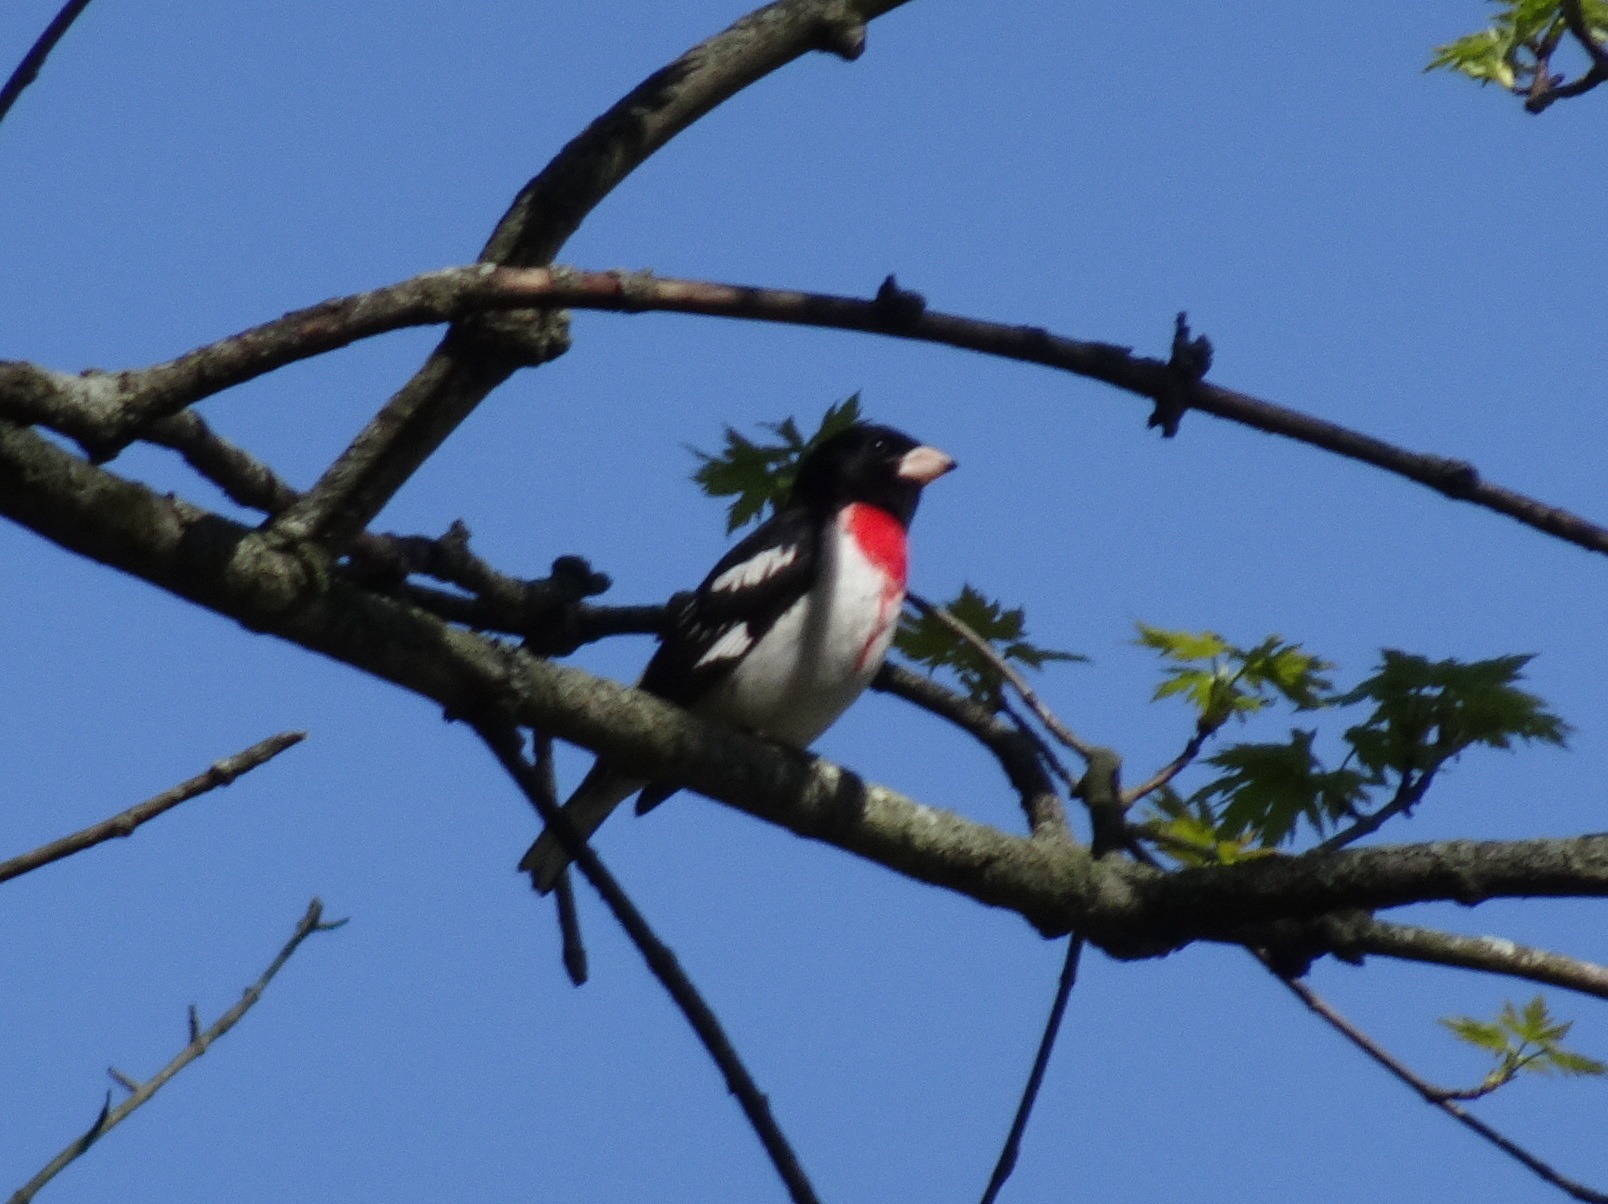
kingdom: Animalia
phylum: Chordata
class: Aves
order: Passeriformes
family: Cardinalidae
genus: Pheucticus
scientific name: Pheucticus ludovicianus
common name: Rose-breasted grosbeak
